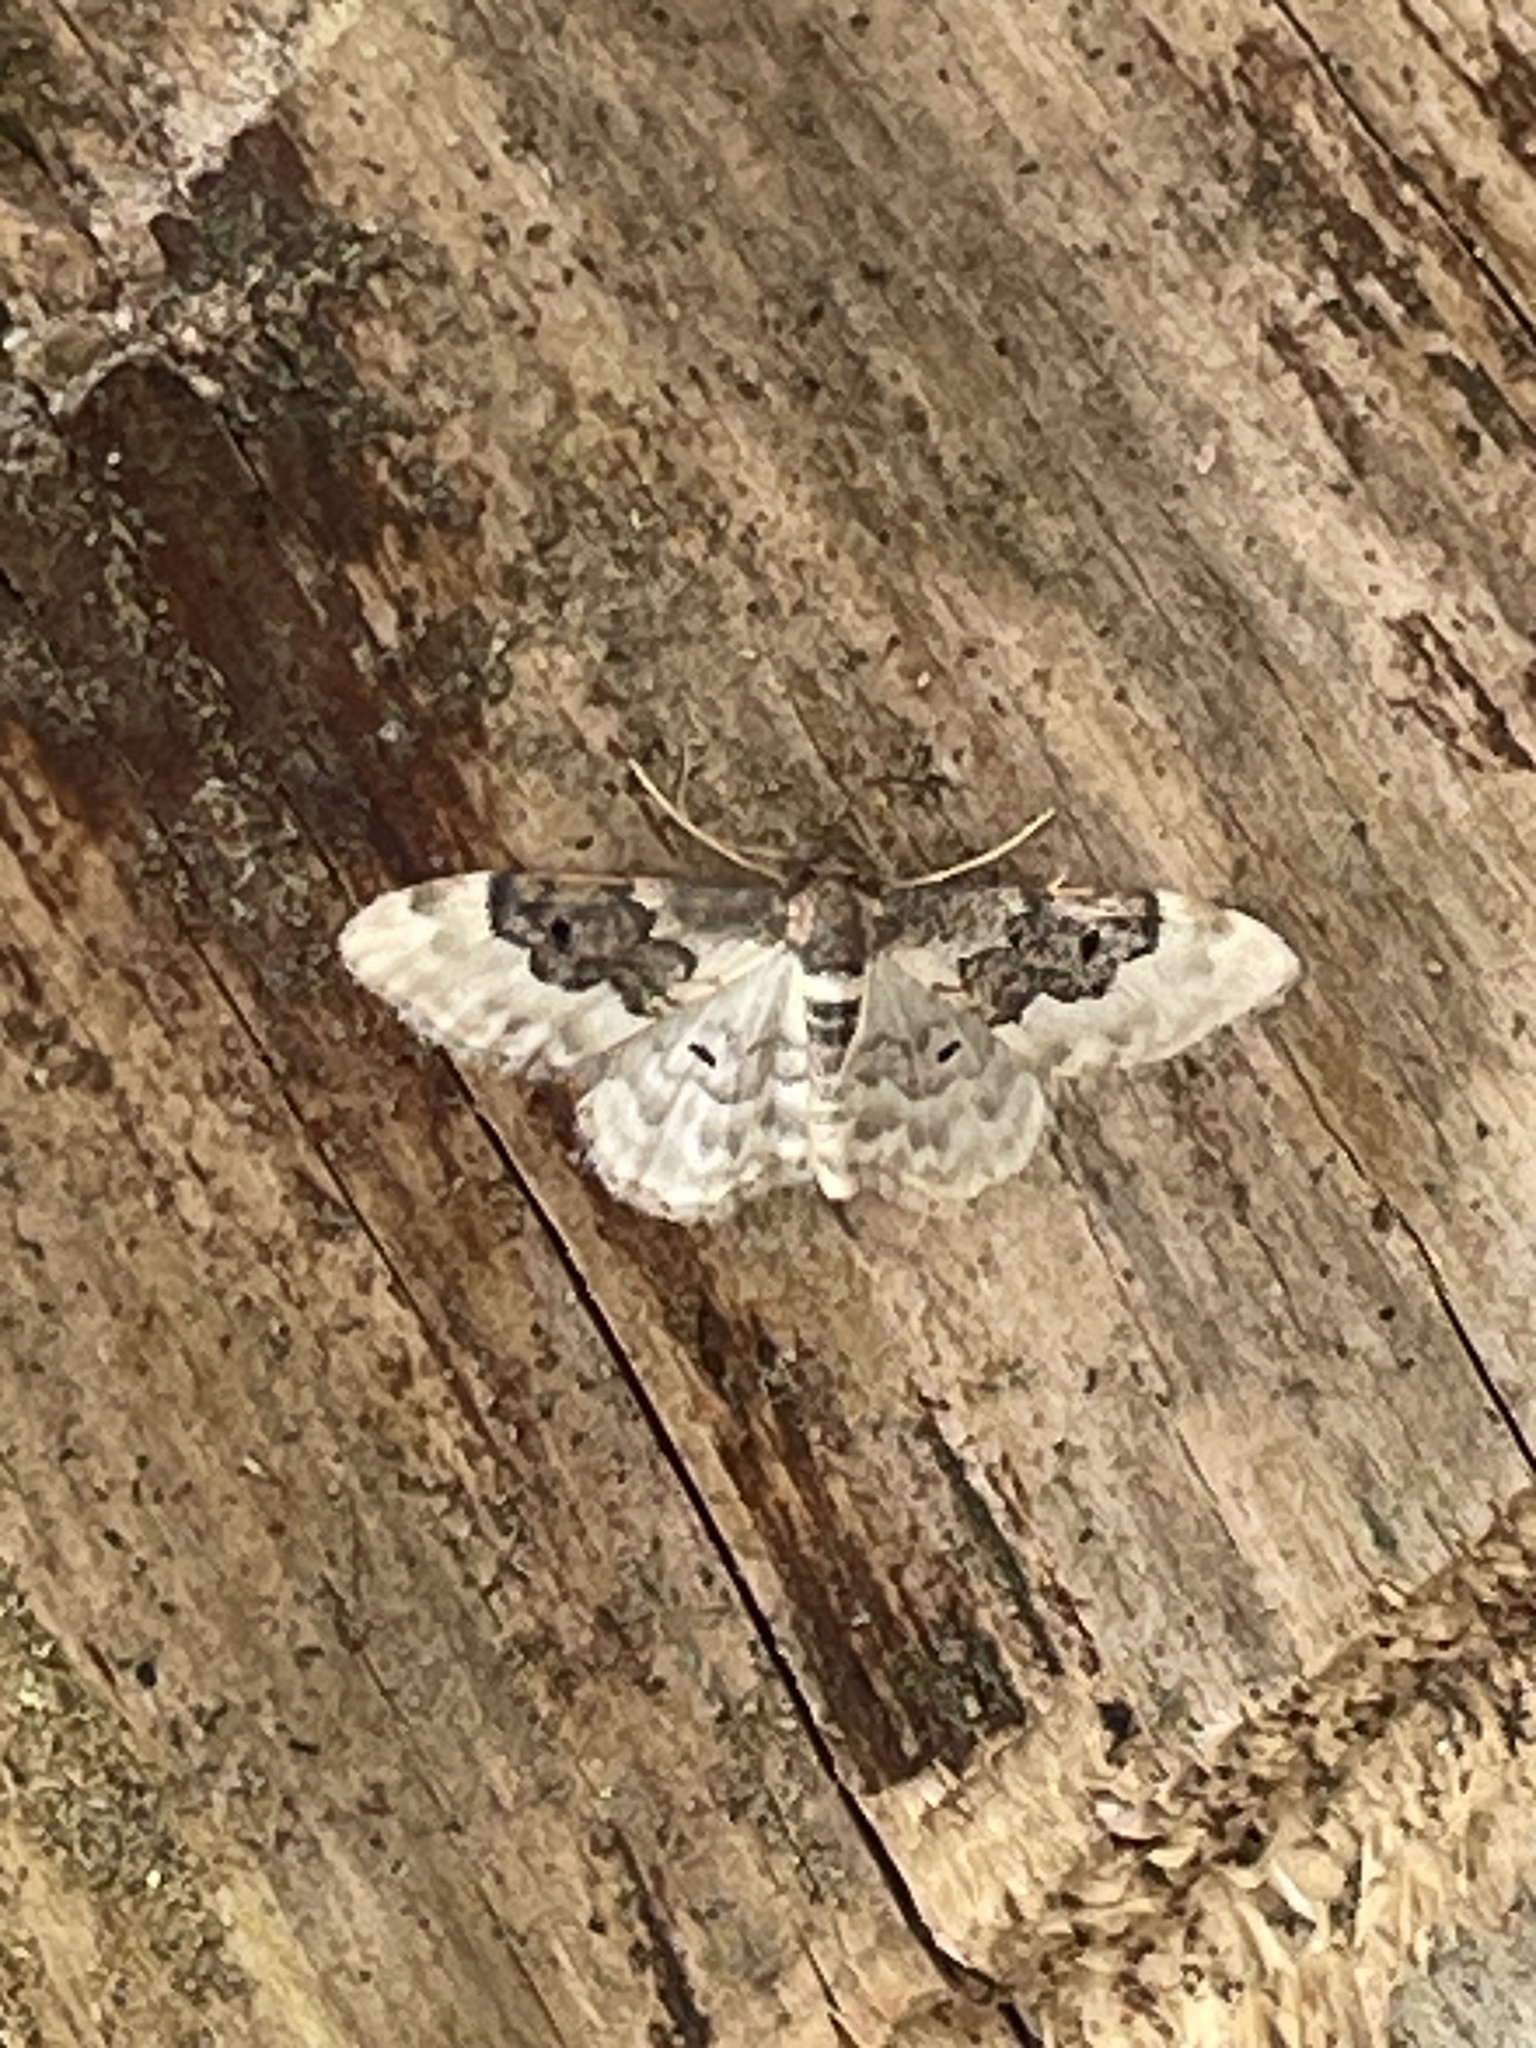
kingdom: Animalia
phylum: Arthropoda
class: Insecta
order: Lepidoptera
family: Geometridae
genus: Idaea
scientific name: Idaea rusticata
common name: Least carpet
